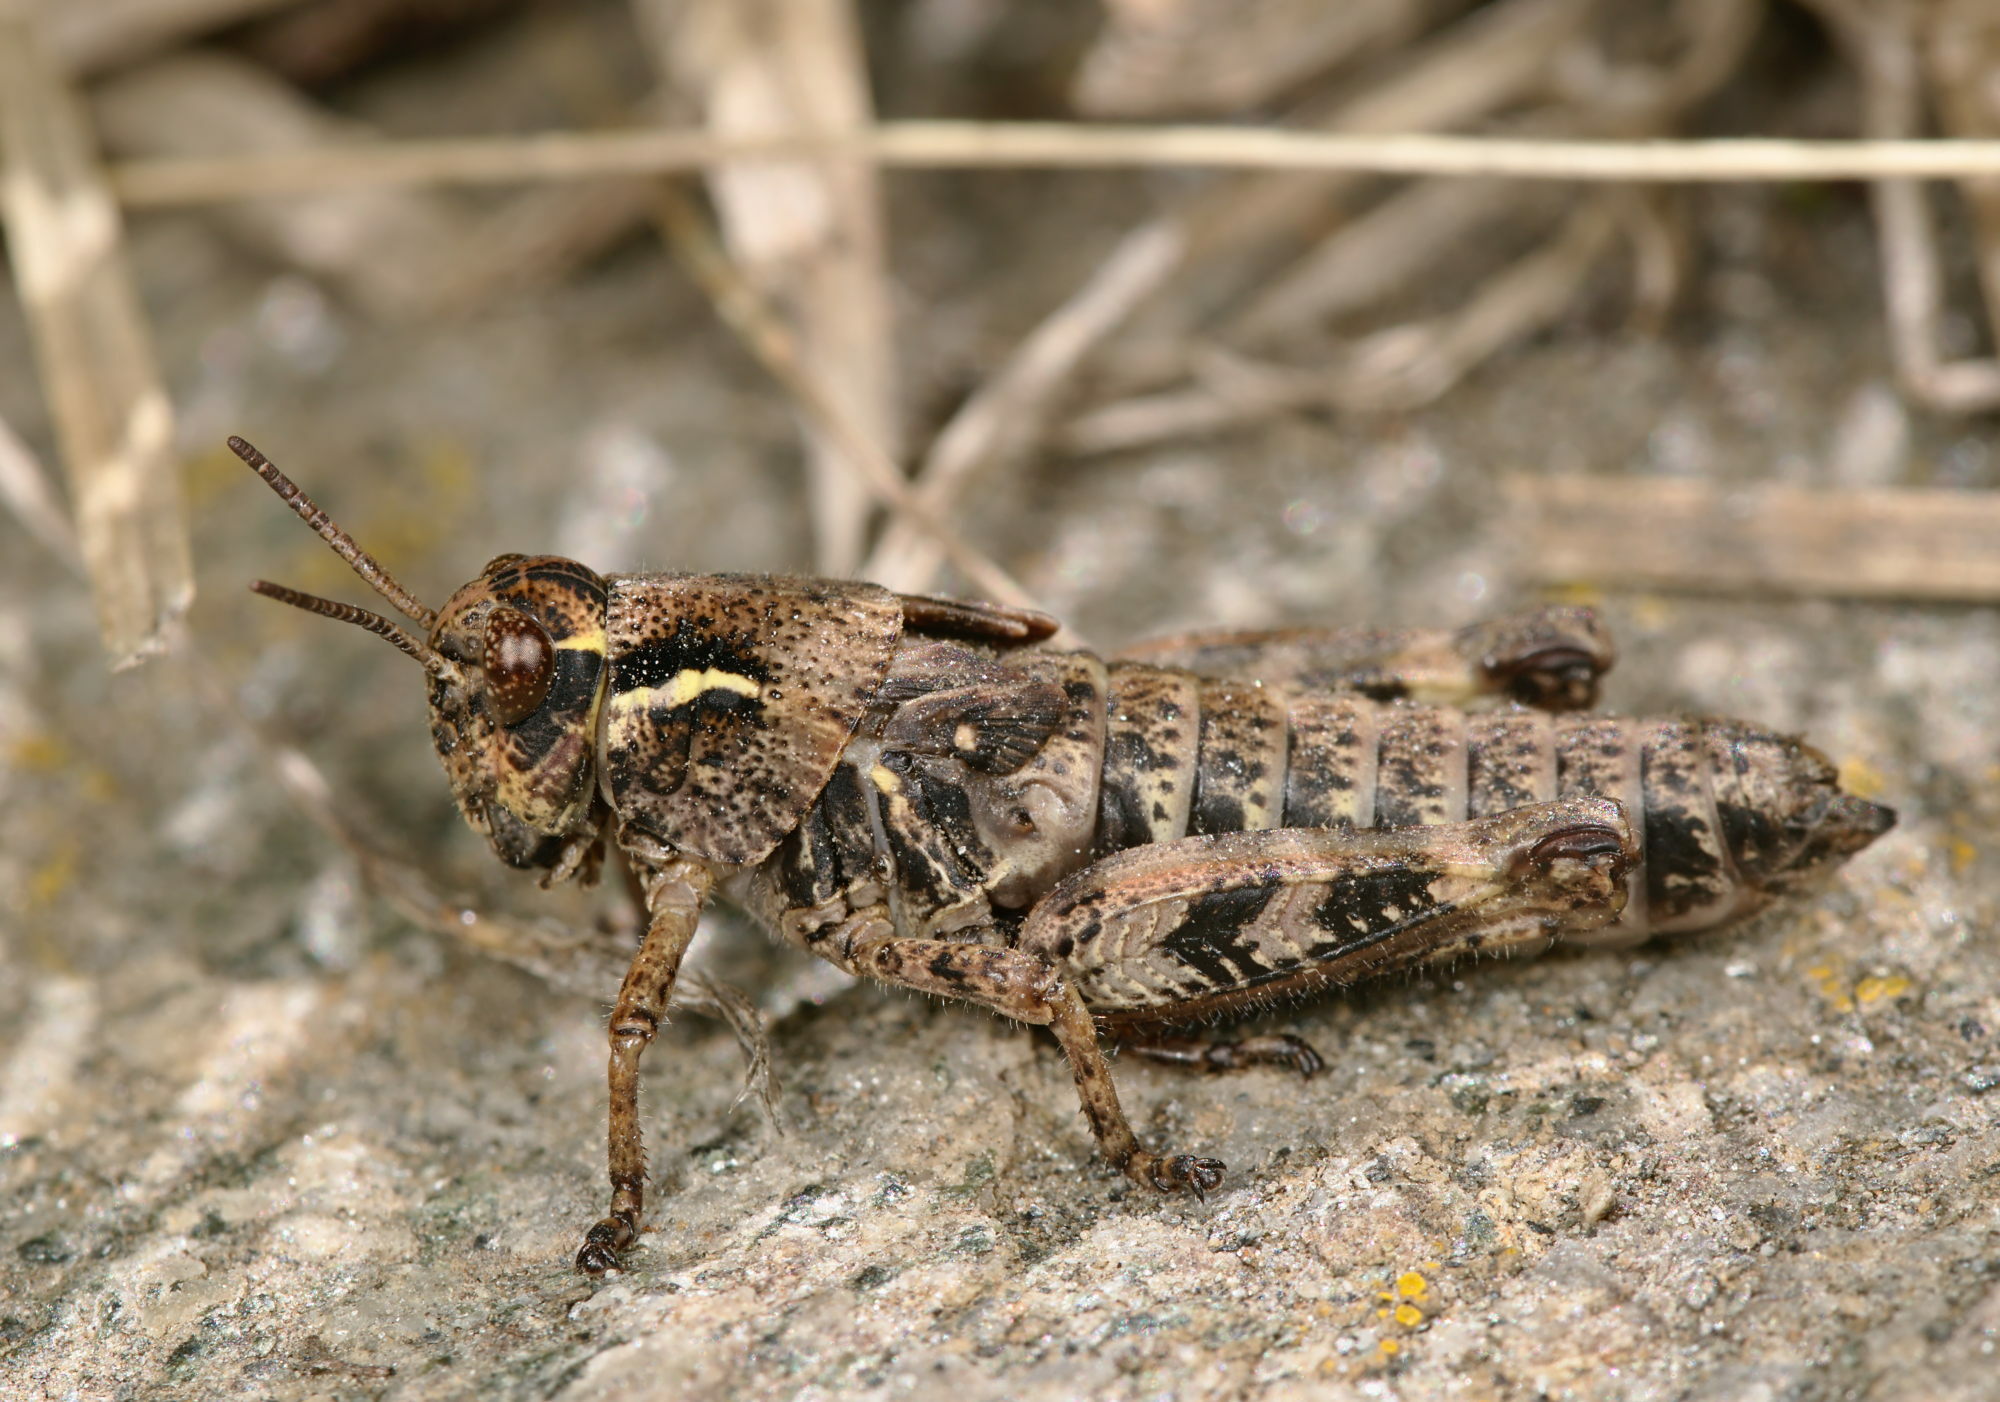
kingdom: Animalia
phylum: Arthropoda
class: Insecta
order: Orthoptera
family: Acrididae
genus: Bohemanella
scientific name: Bohemanella frigida
